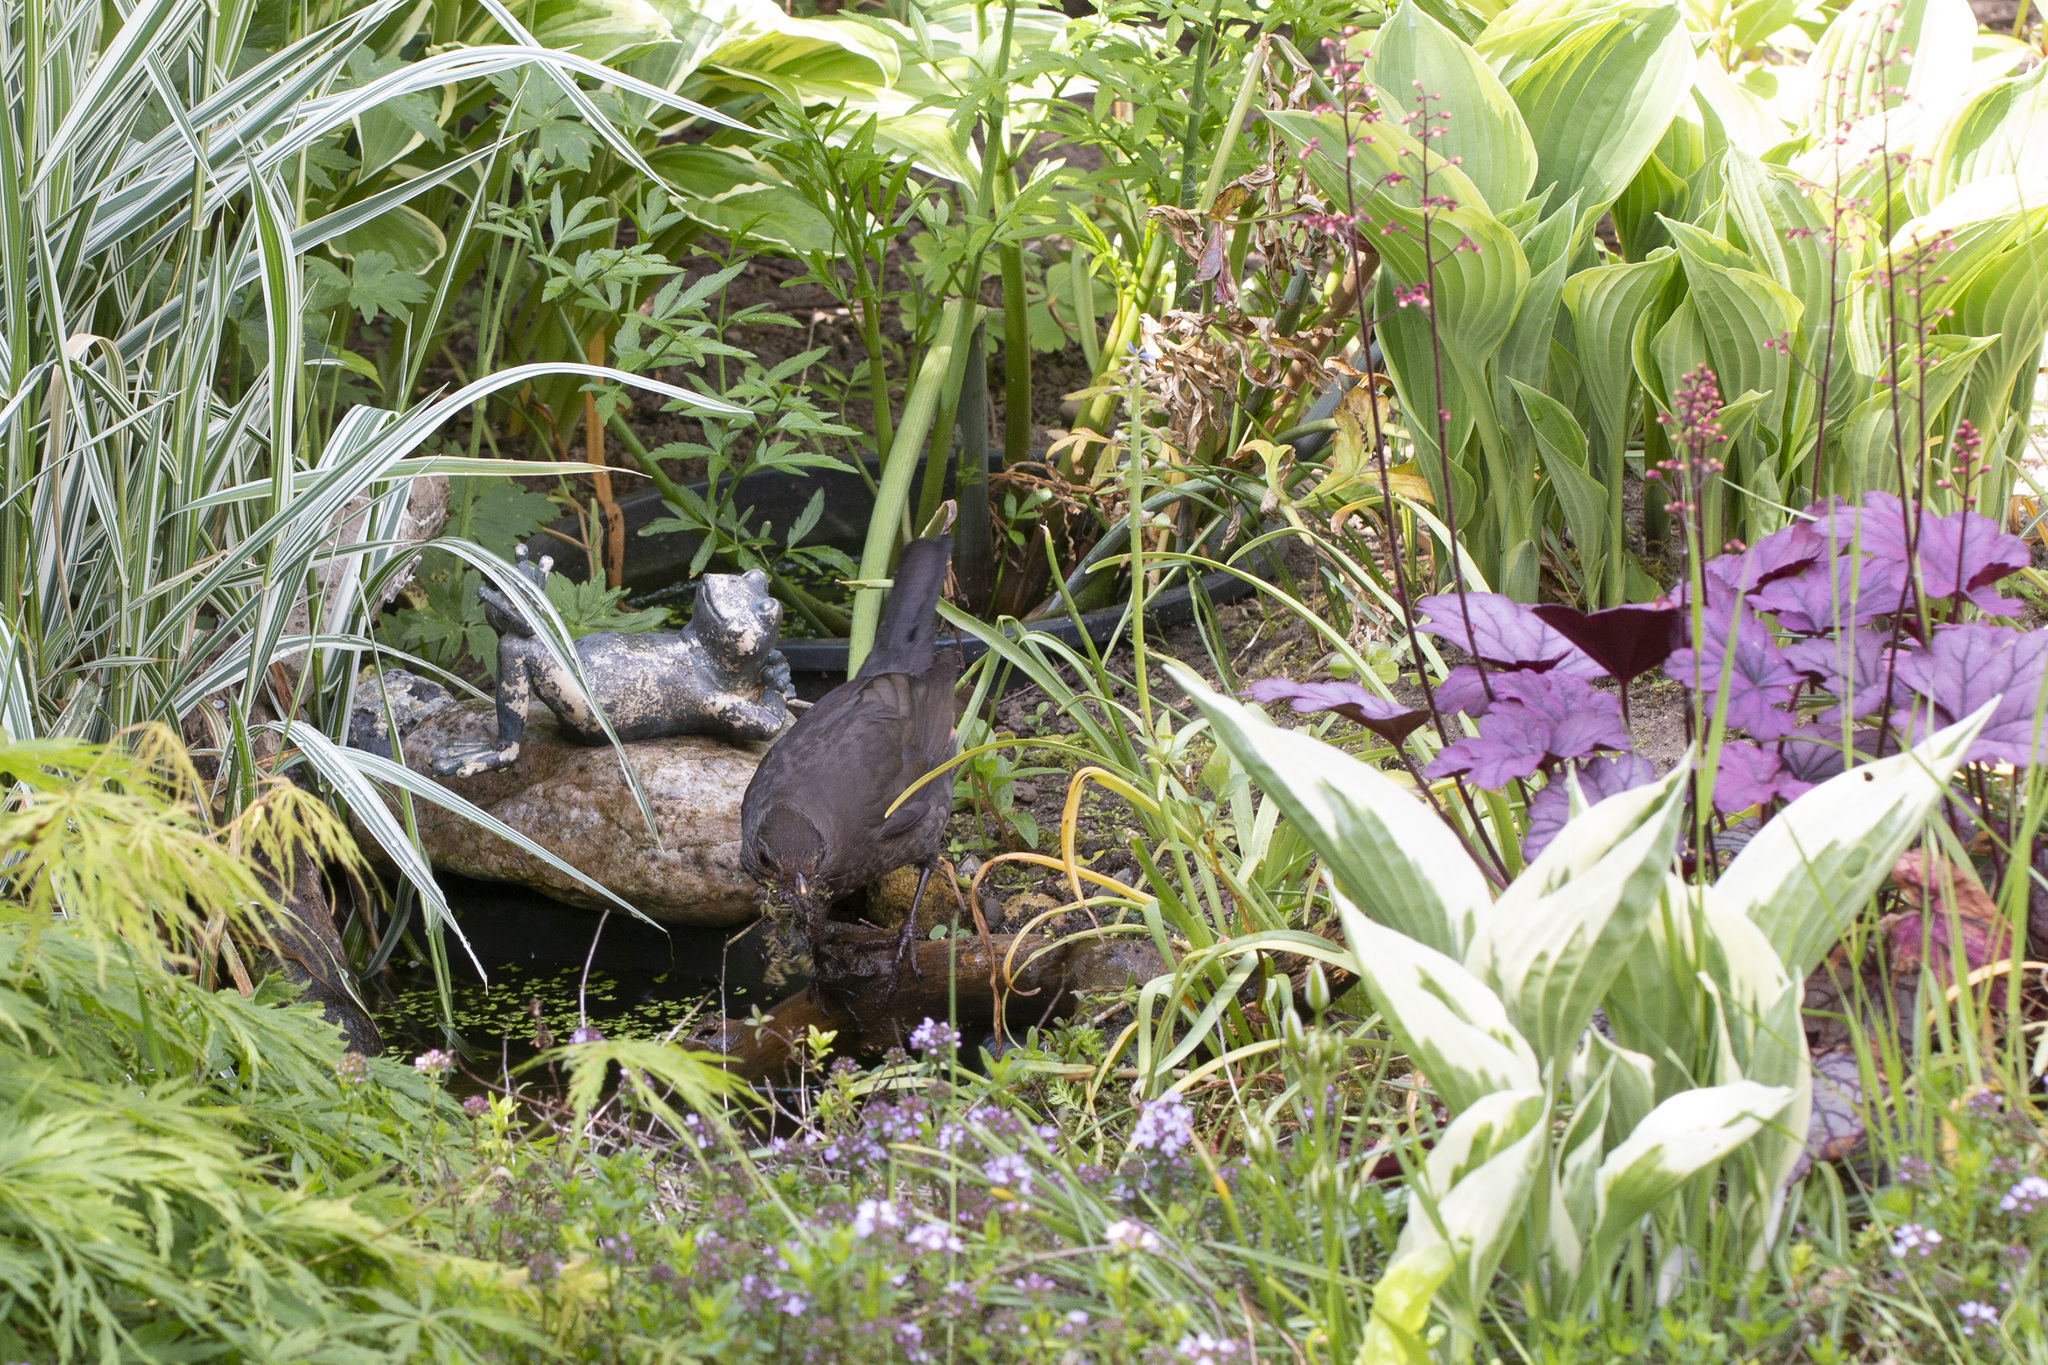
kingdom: Animalia
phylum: Chordata
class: Aves
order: Passeriformes
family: Turdidae
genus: Turdus
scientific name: Turdus merula
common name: Common blackbird
